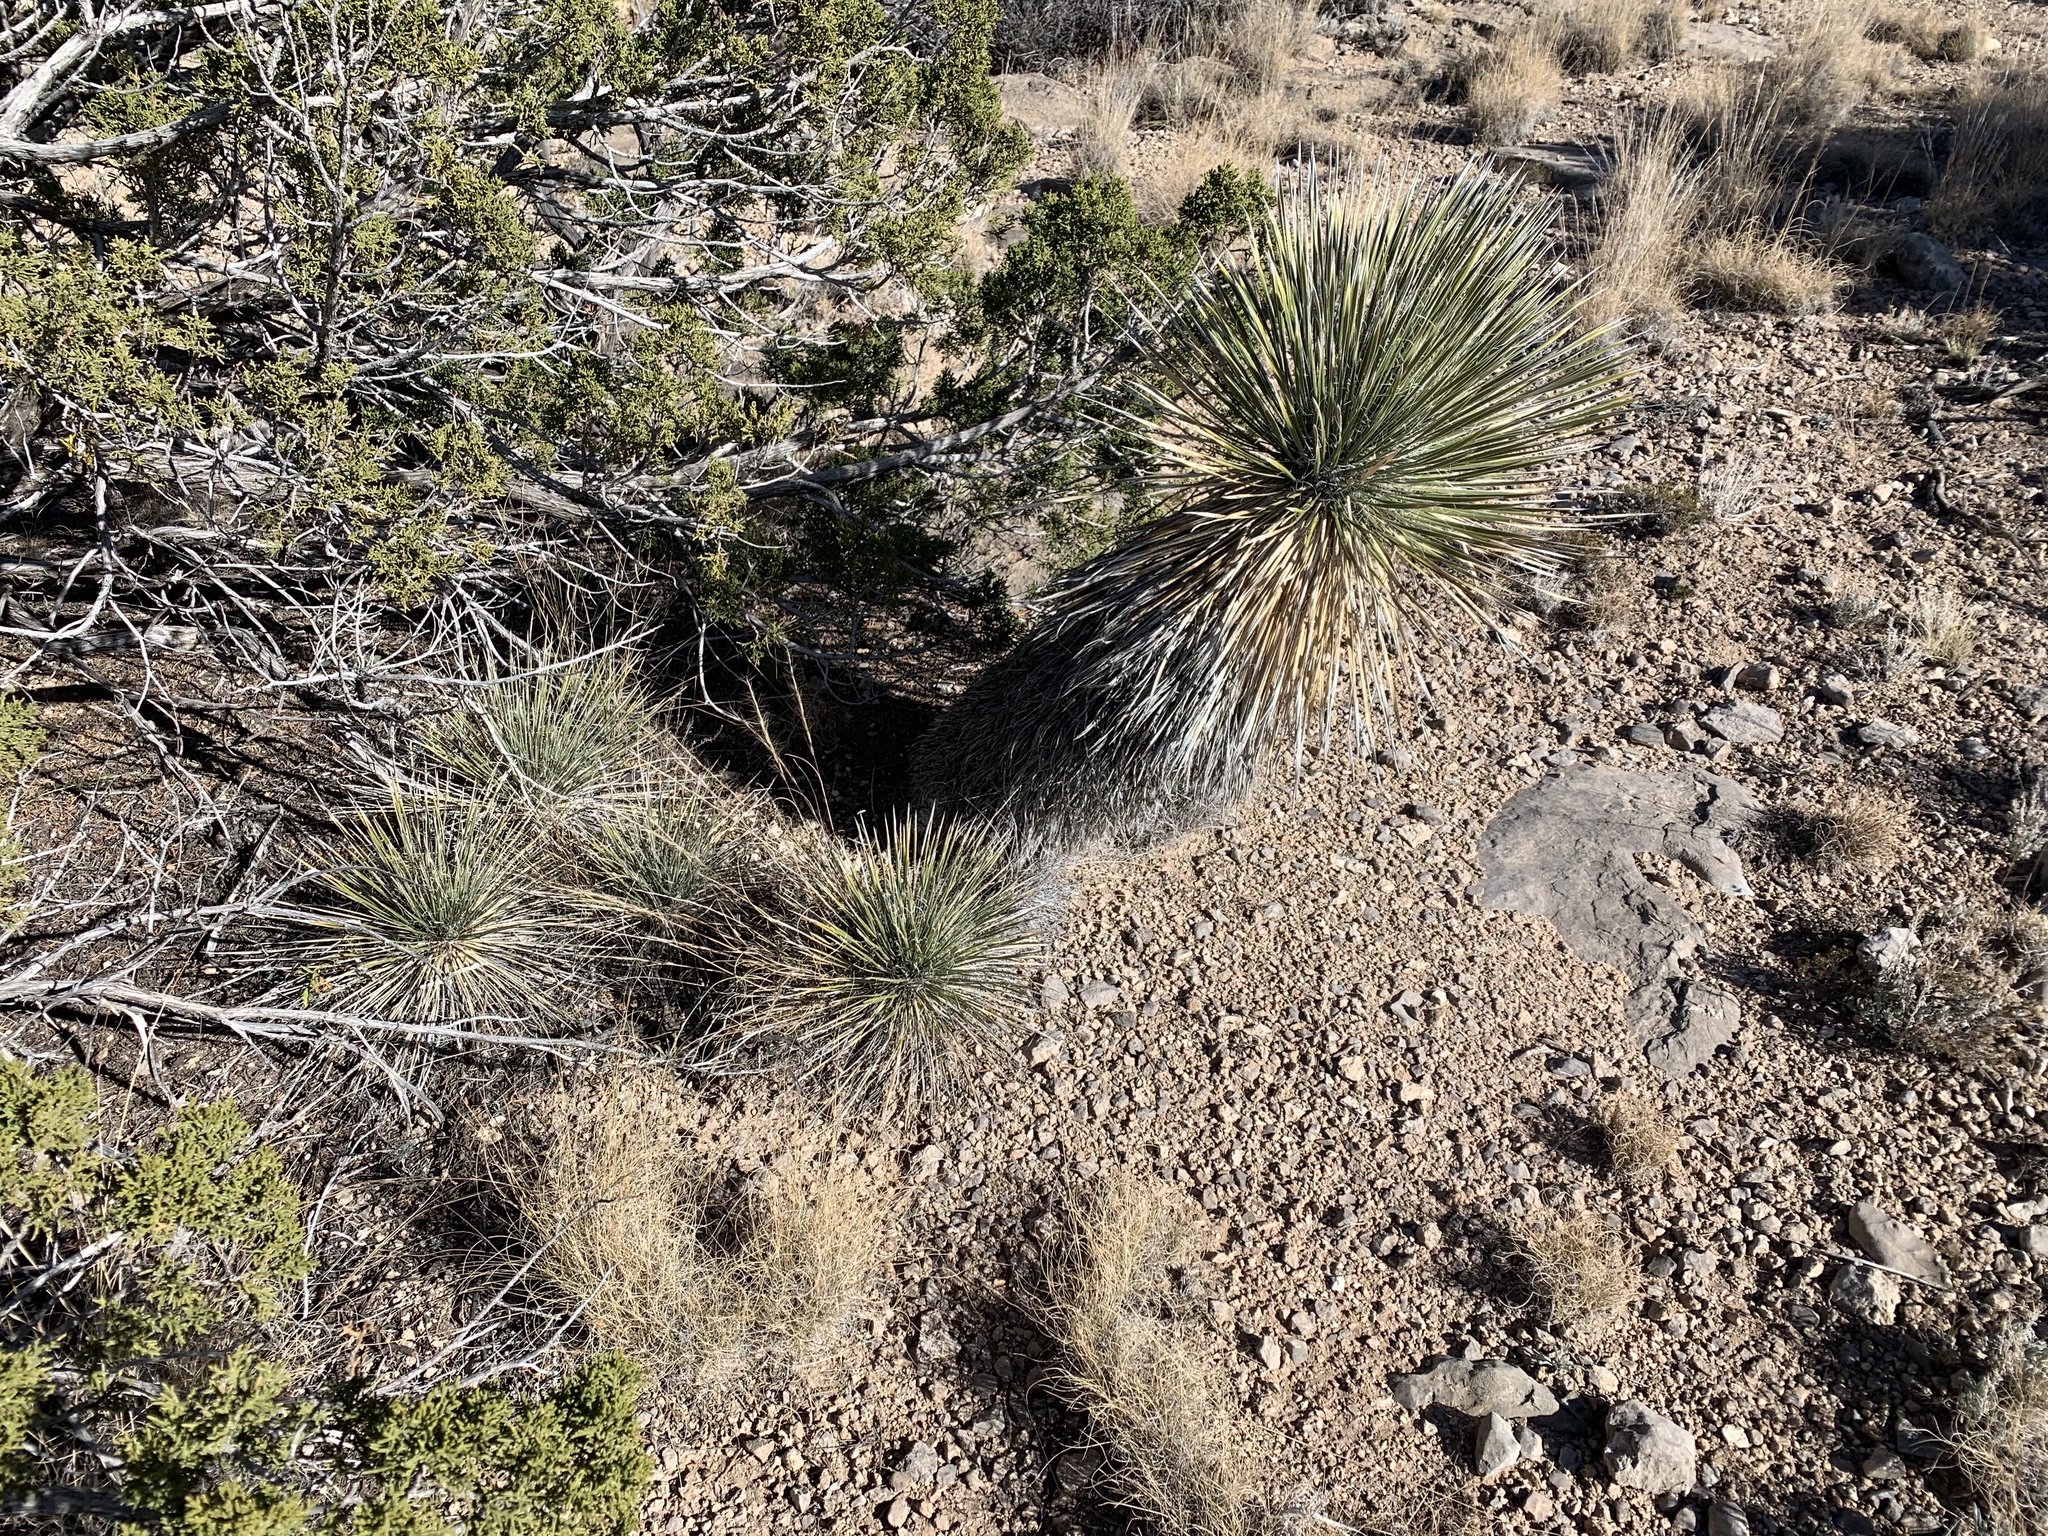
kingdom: Plantae
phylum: Tracheophyta
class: Liliopsida
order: Asparagales
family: Asparagaceae
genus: Yucca
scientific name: Yucca elata
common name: Palmella
